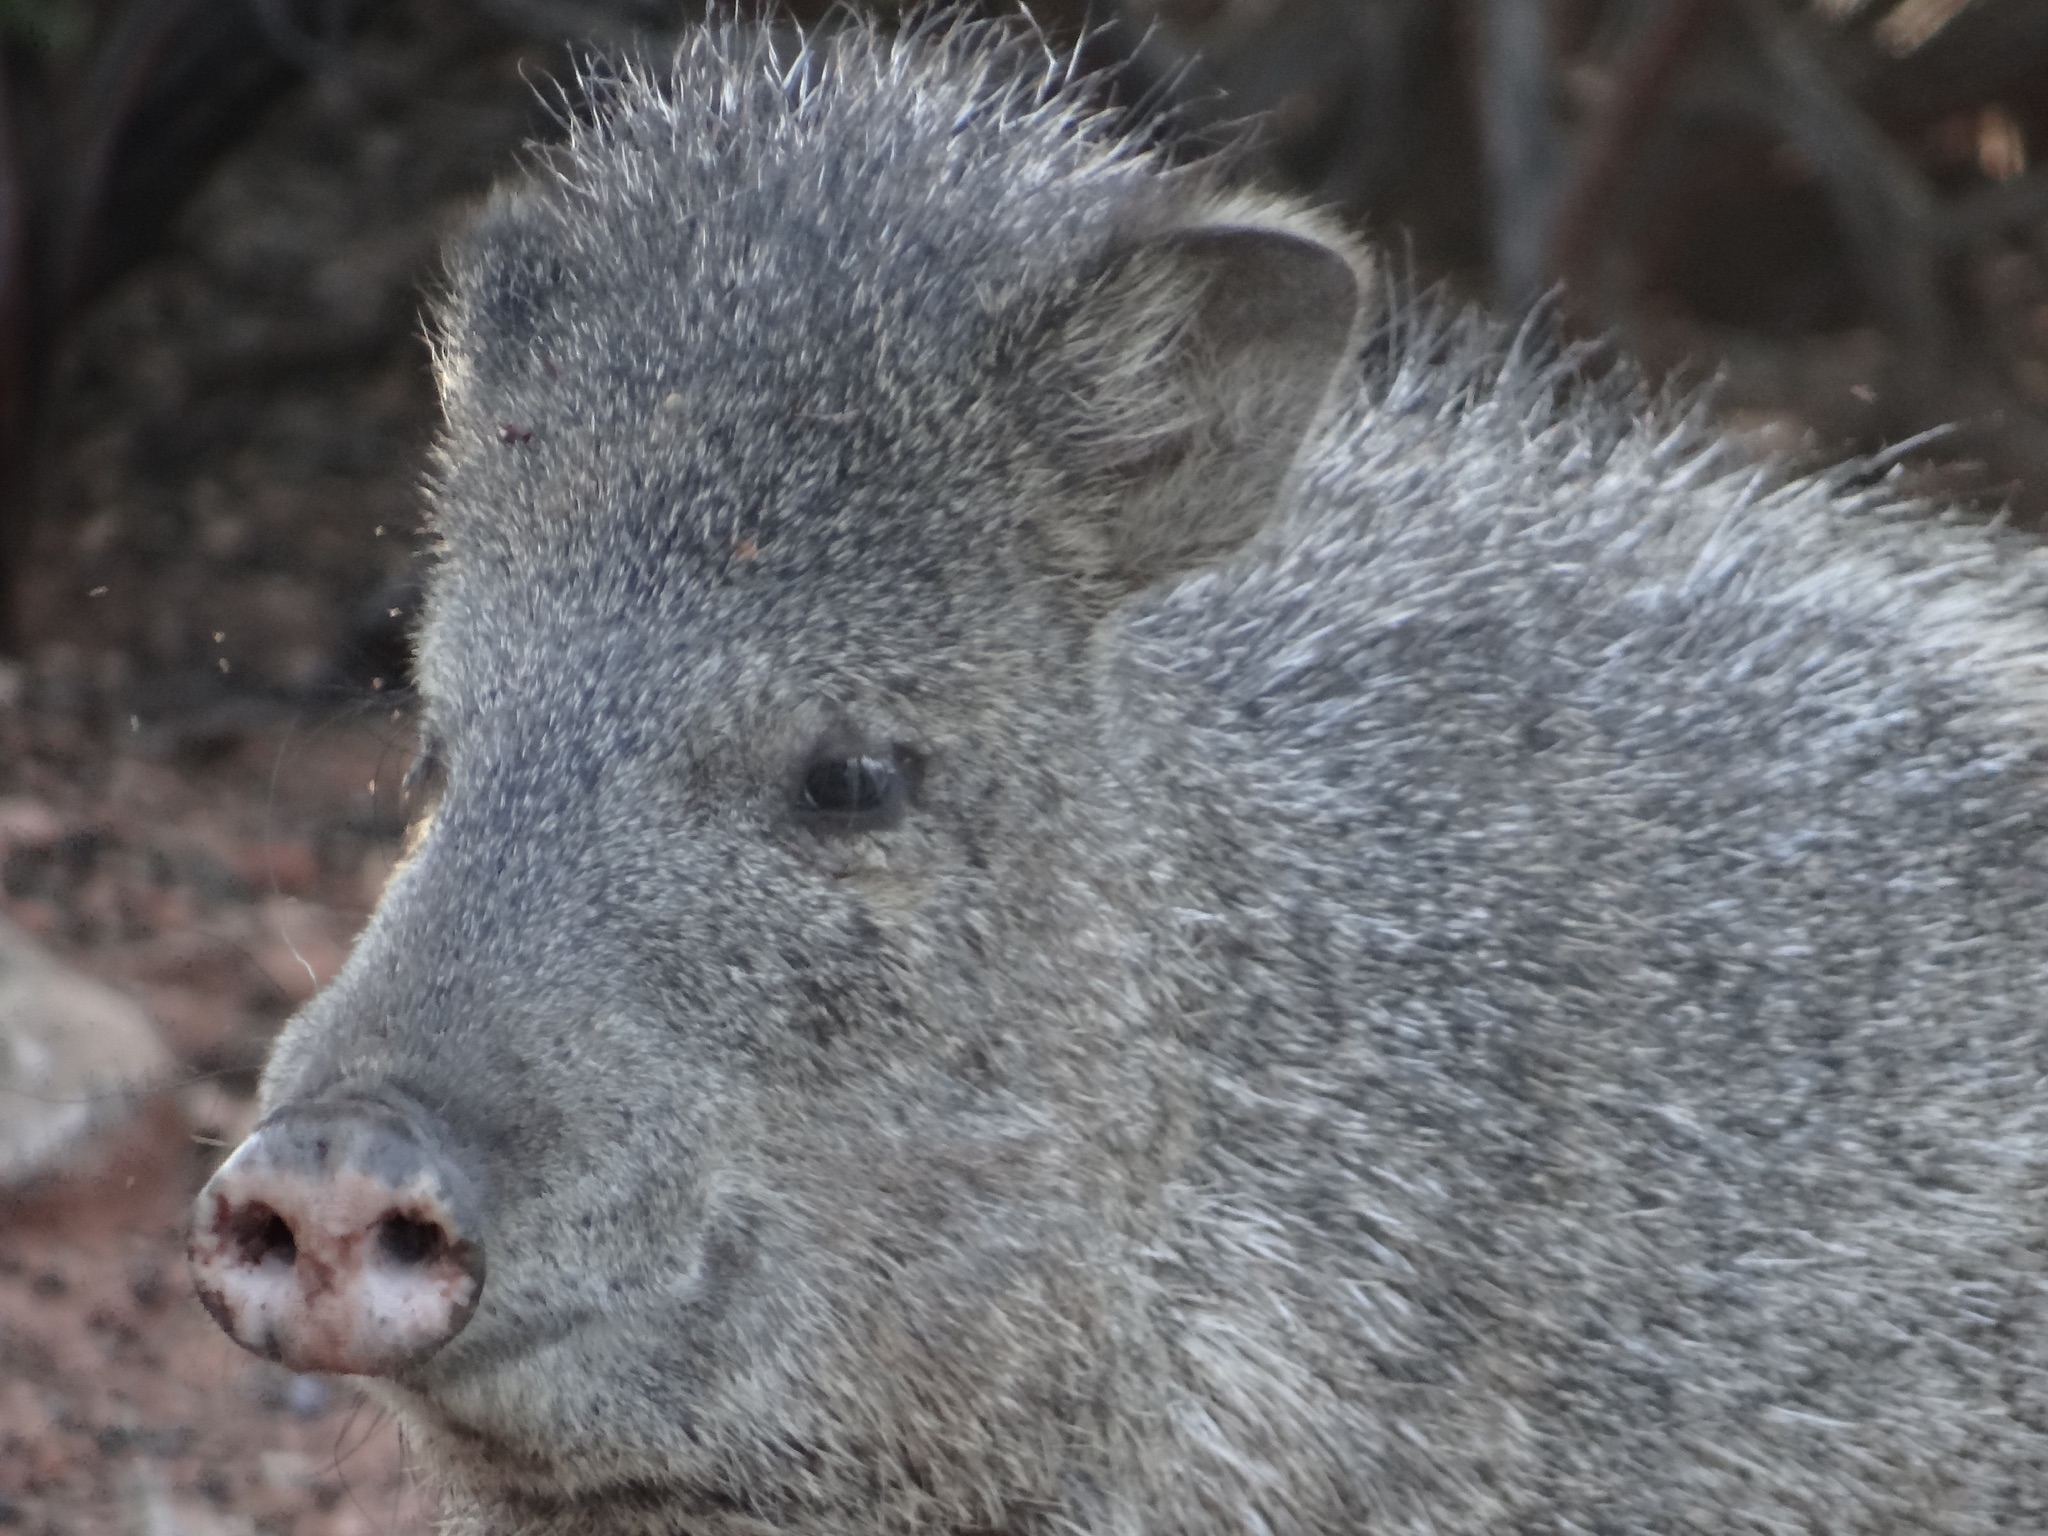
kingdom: Animalia
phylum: Chordata
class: Mammalia
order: Artiodactyla
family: Tayassuidae
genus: Pecari
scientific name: Pecari tajacu
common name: Collared peccary
